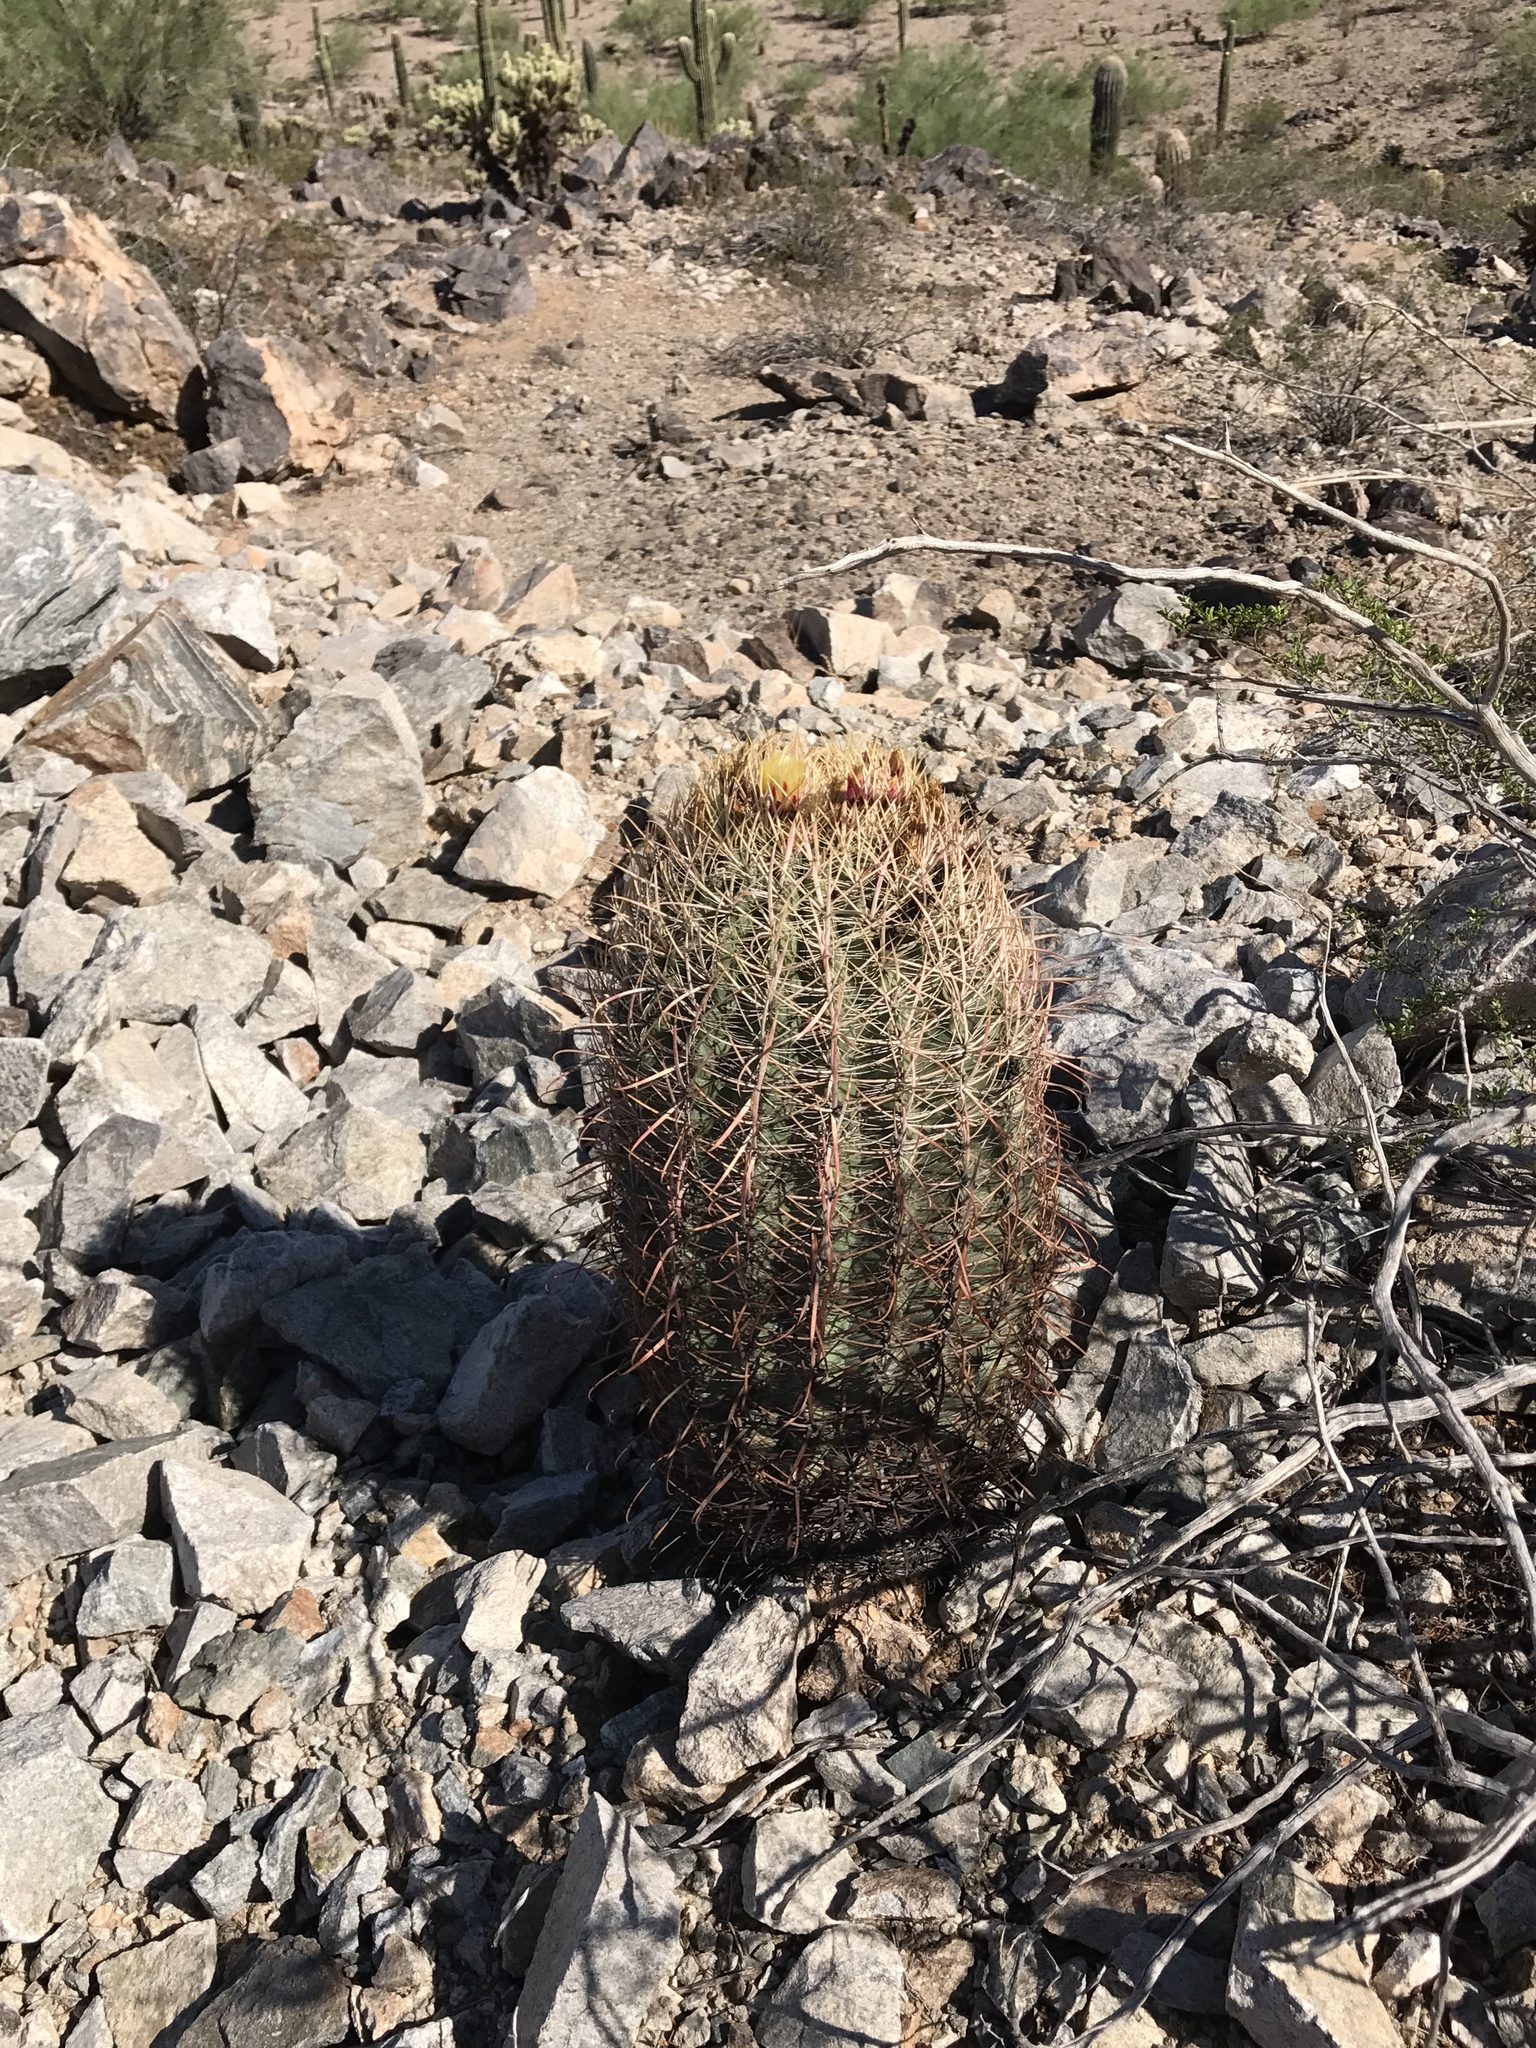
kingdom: Plantae
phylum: Tracheophyta
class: Magnoliopsida
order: Caryophyllales
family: Cactaceae
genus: Ferocactus
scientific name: Ferocactus cylindraceus
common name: California barrel cactus
